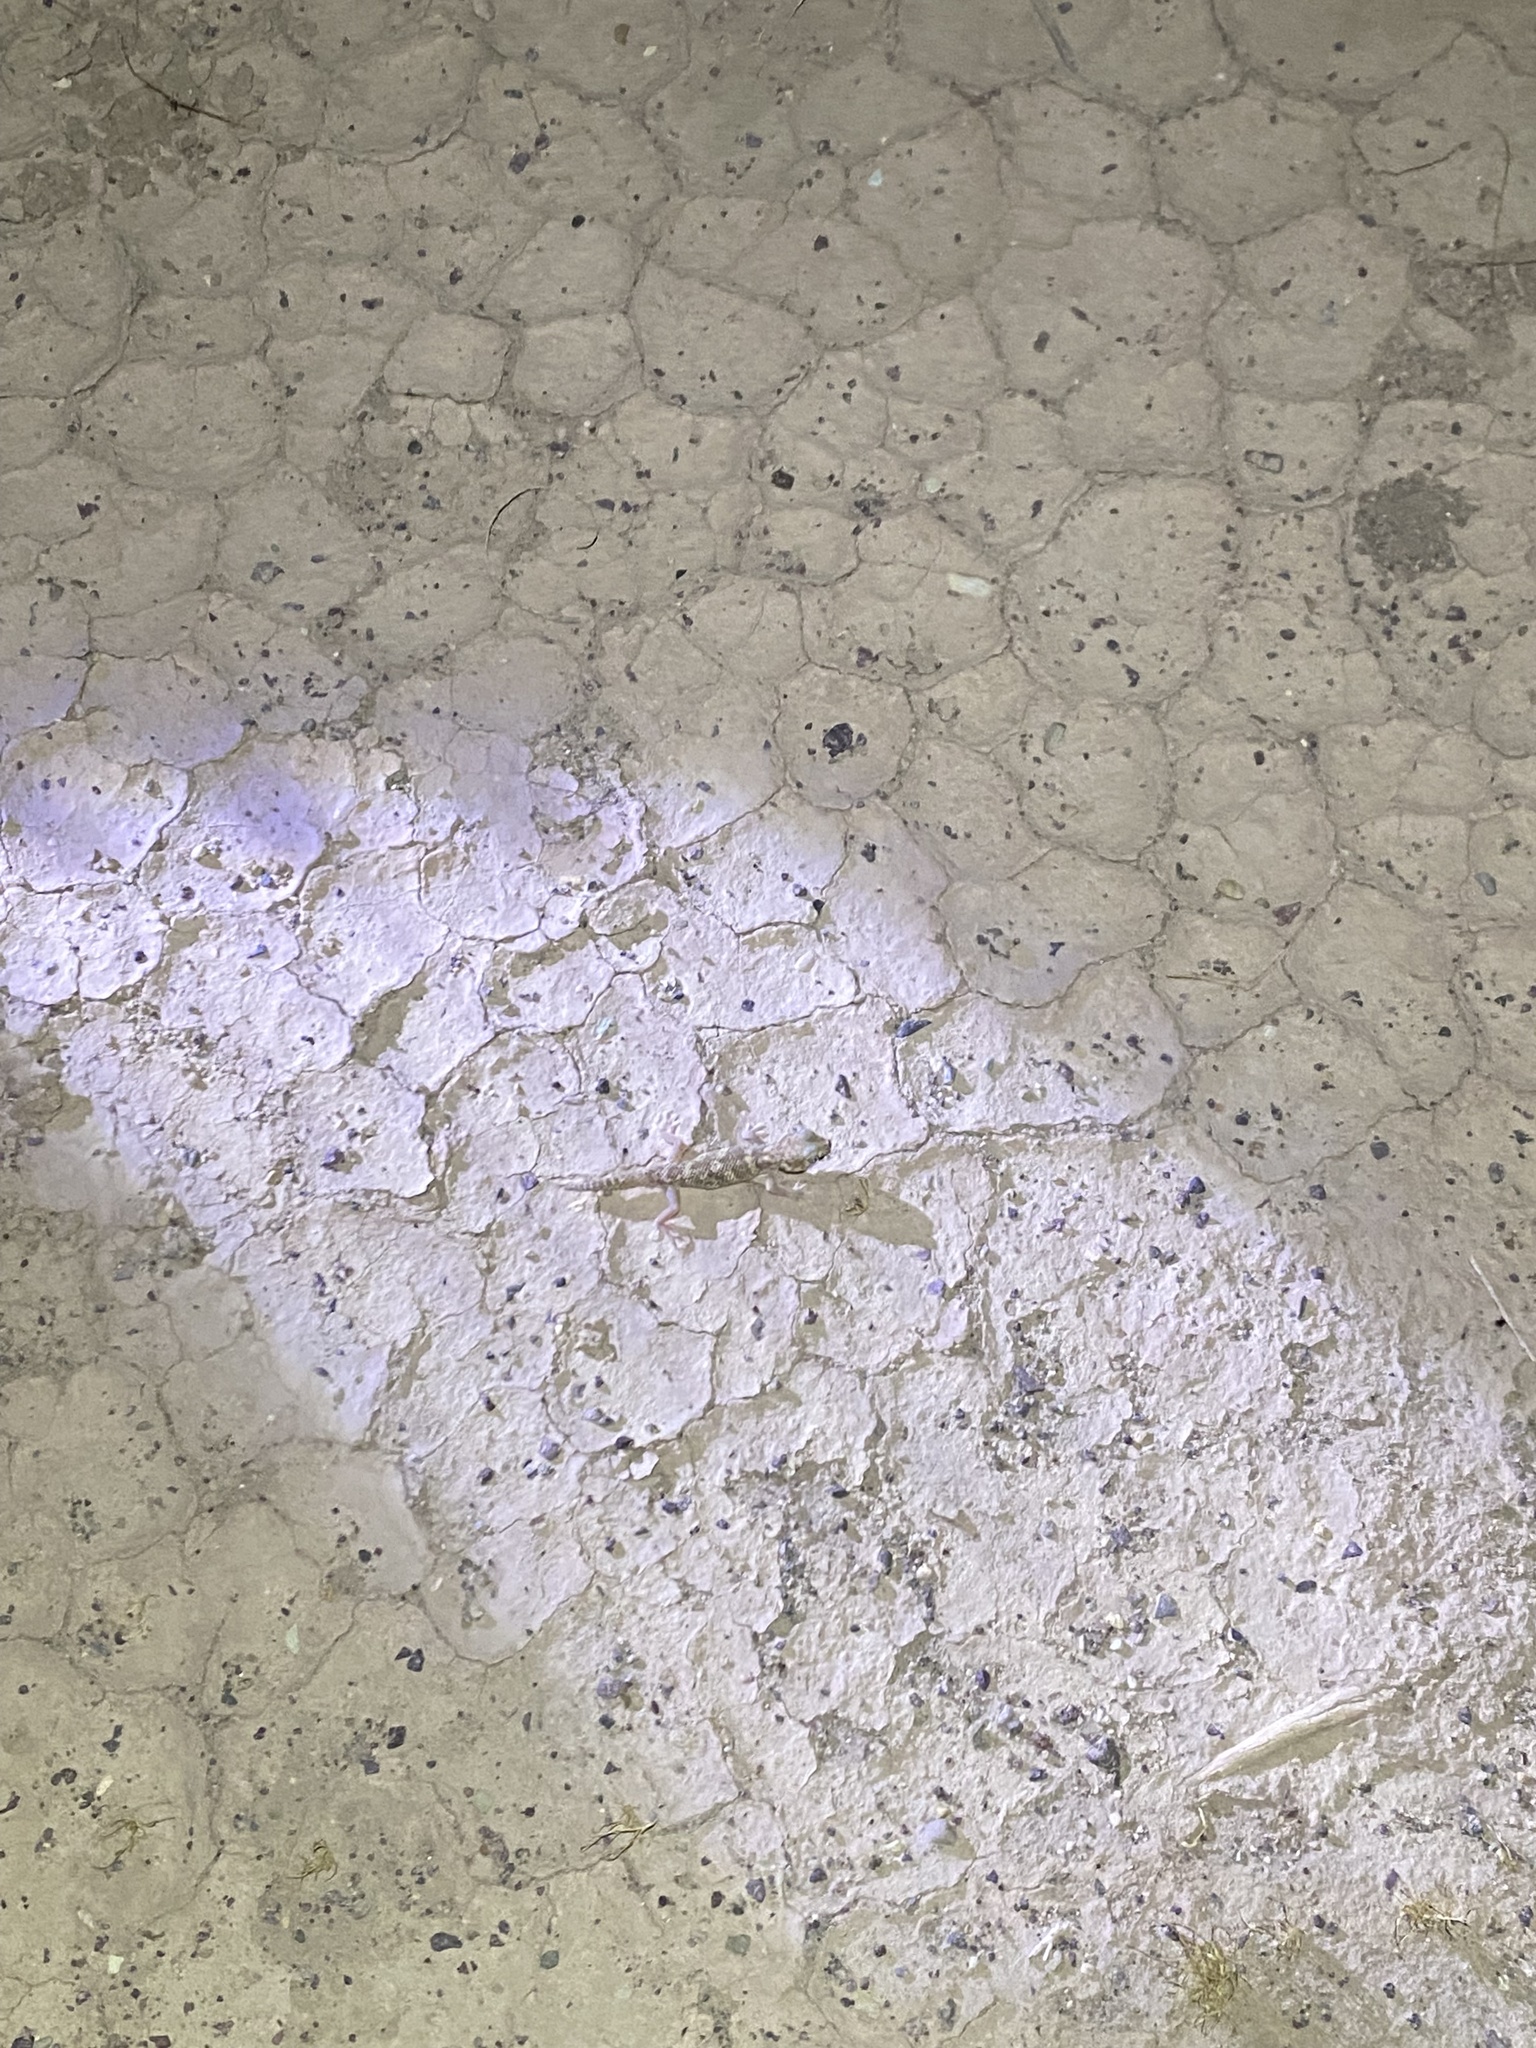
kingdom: Animalia
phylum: Chordata
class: Squamata
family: Sphaerodactylidae
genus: Teratoscincus
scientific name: Teratoscincus bedriagai
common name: Bedriaga's plate-tailed gecko
